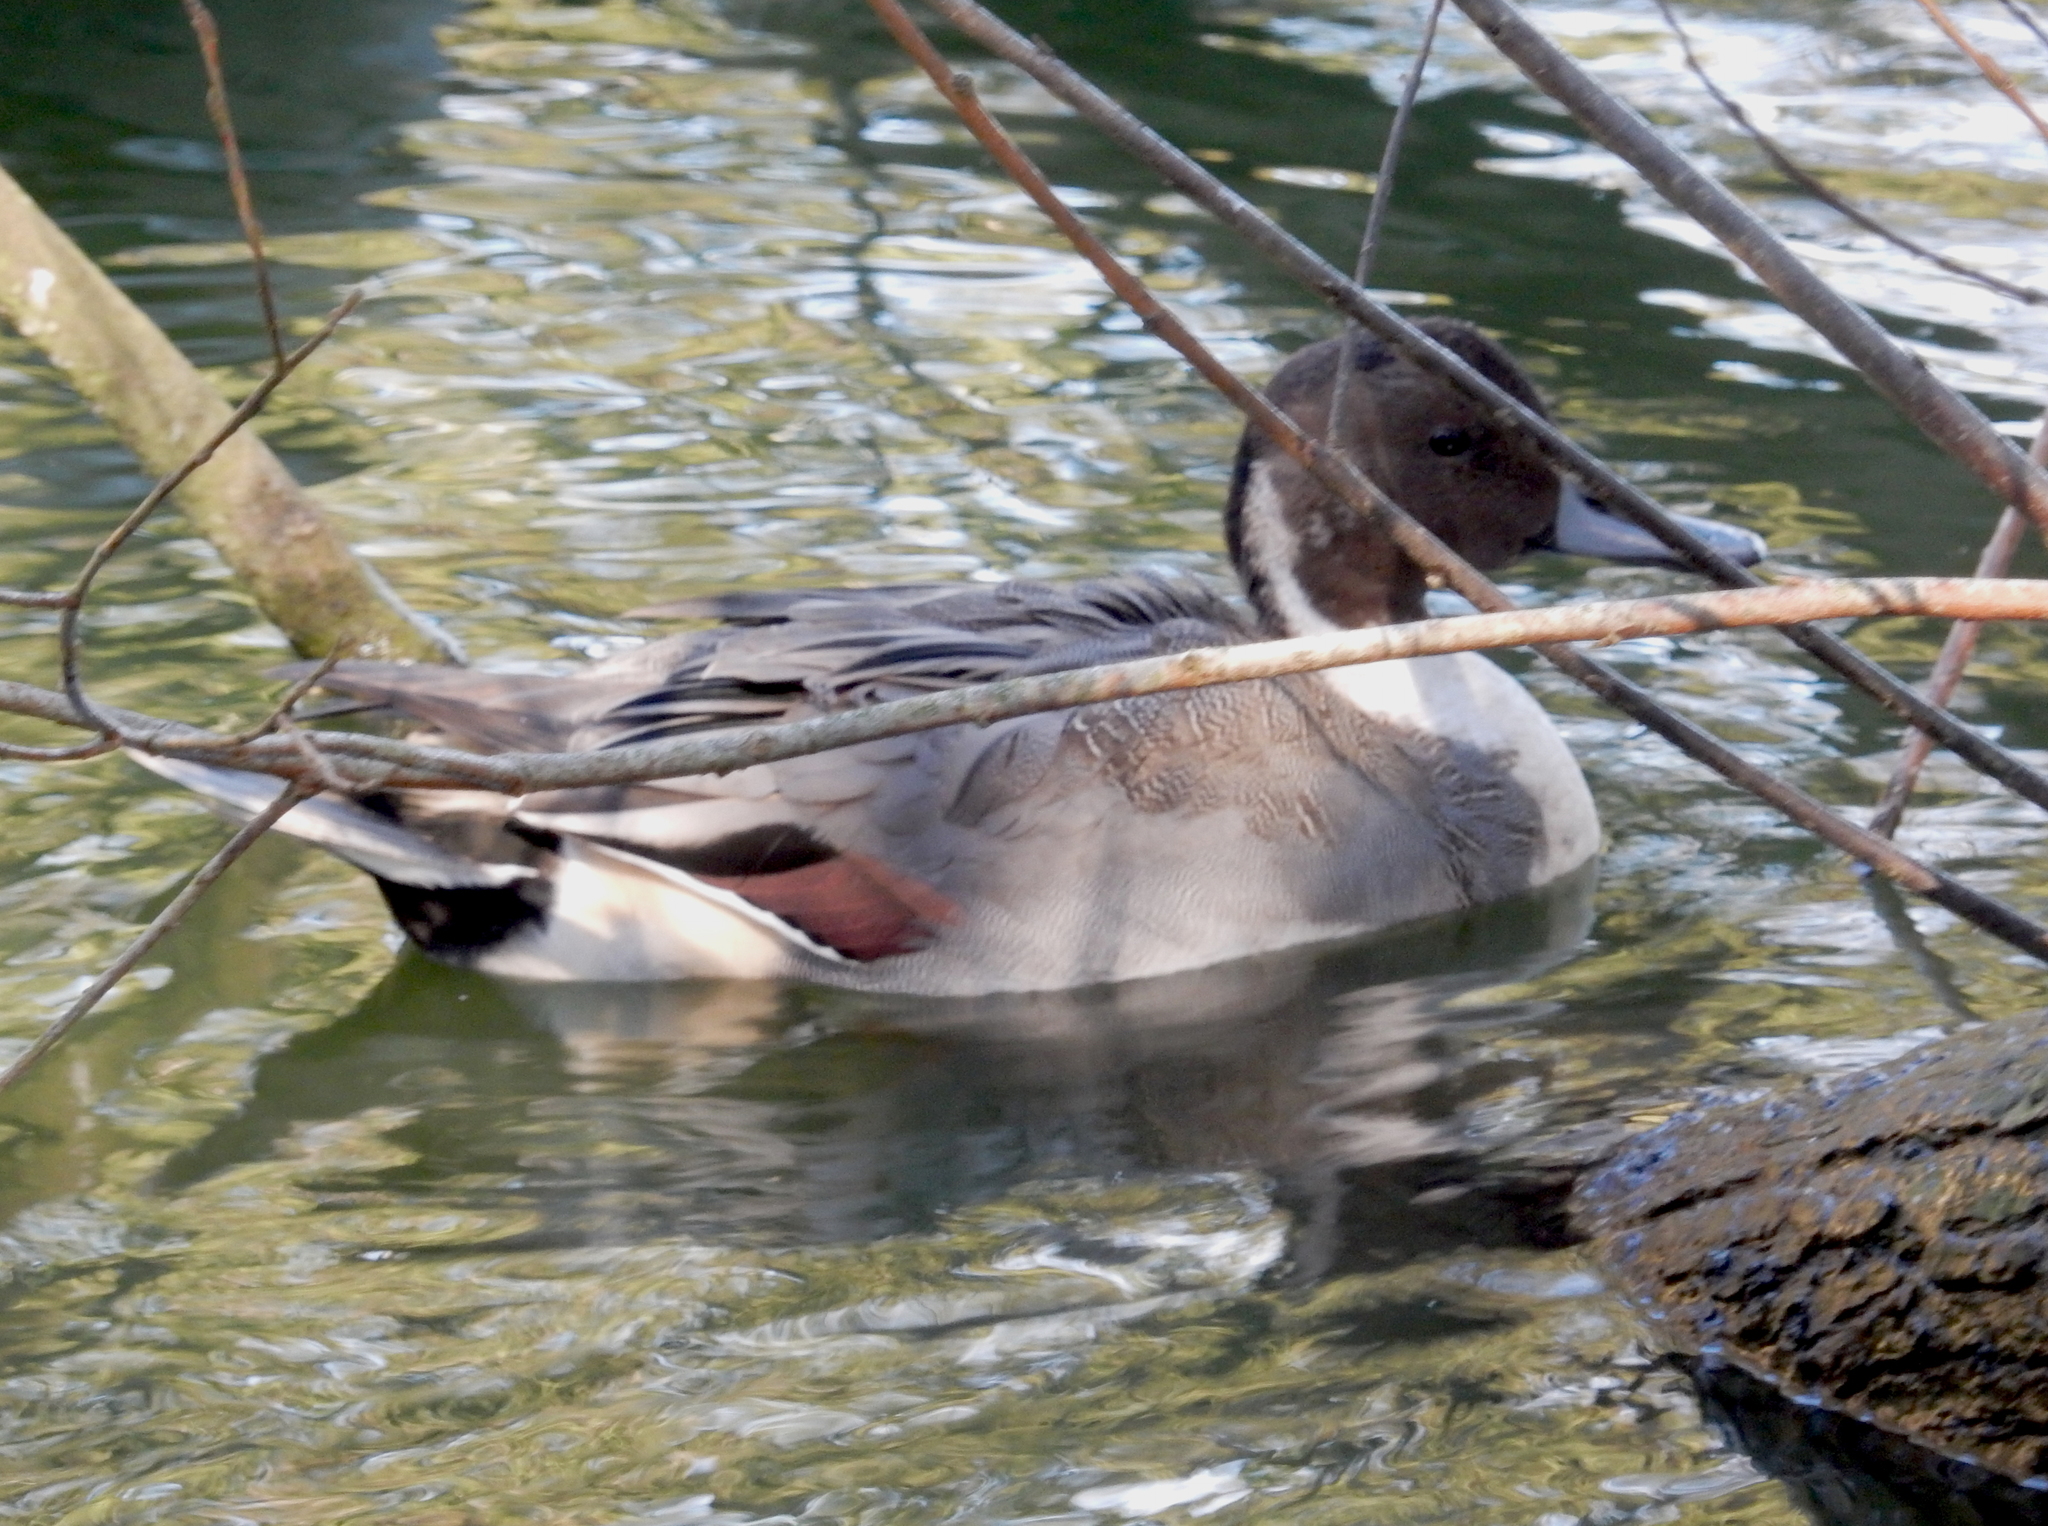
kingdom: Animalia
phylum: Chordata
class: Aves
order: Anseriformes
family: Anatidae
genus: Anas
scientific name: Anas acuta
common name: Northern pintail
